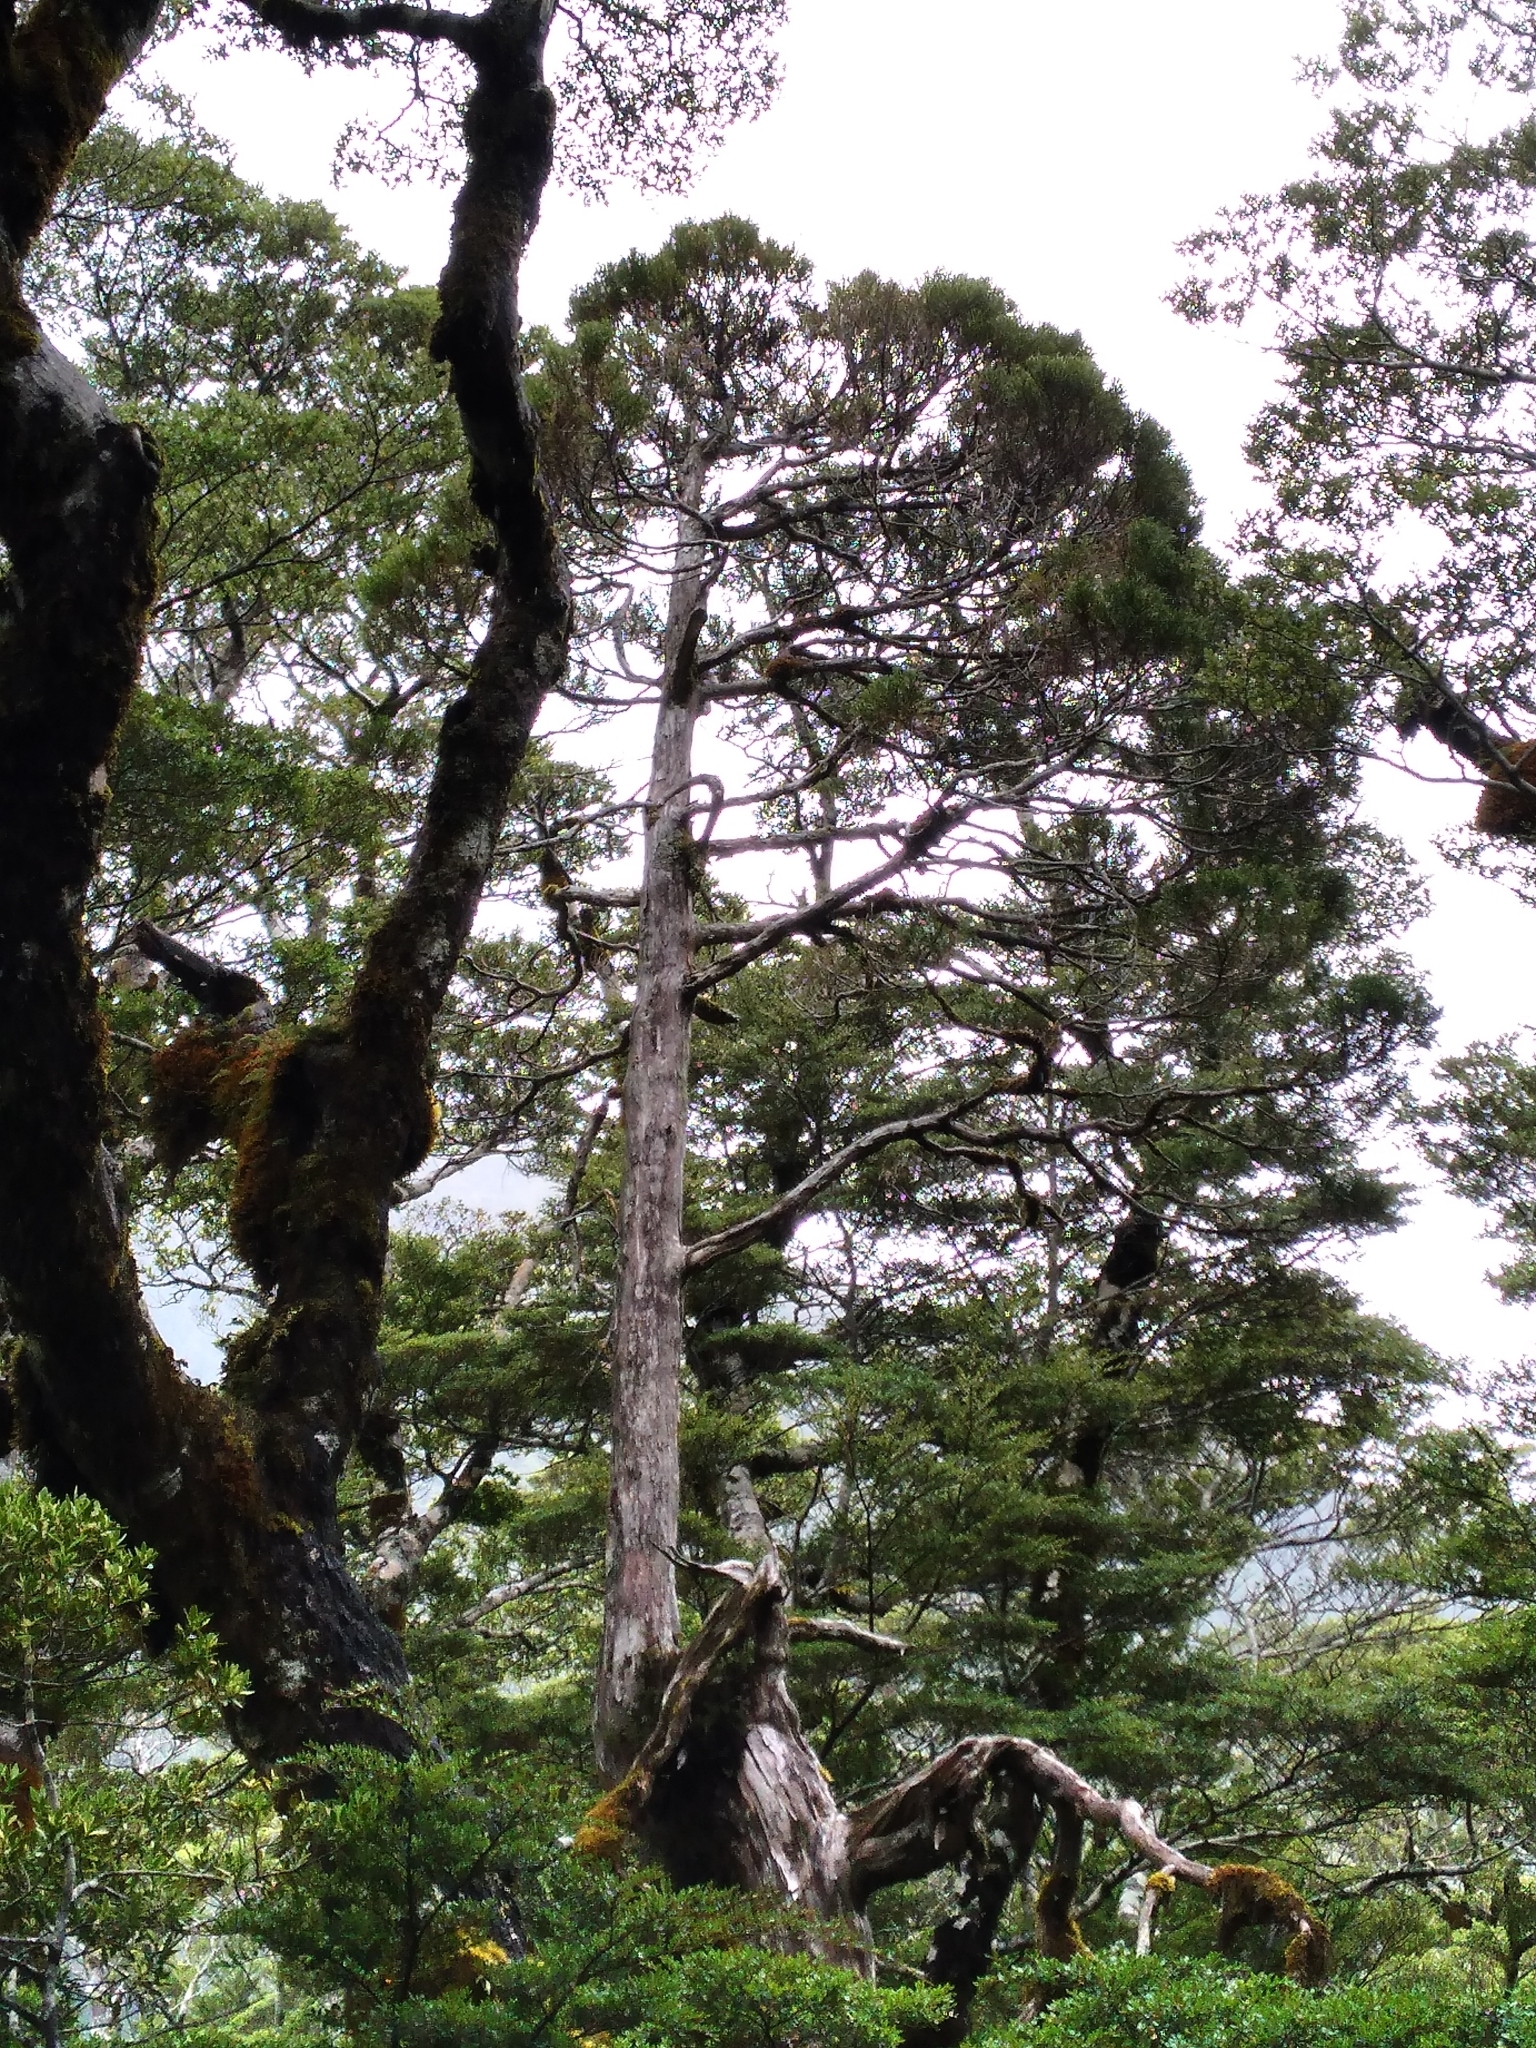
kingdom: Plantae
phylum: Tracheophyta
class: Pinopsida
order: Pinales
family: Cupressaceae
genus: Libocedrus
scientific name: Libocedrus bidwillii
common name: Cedar
